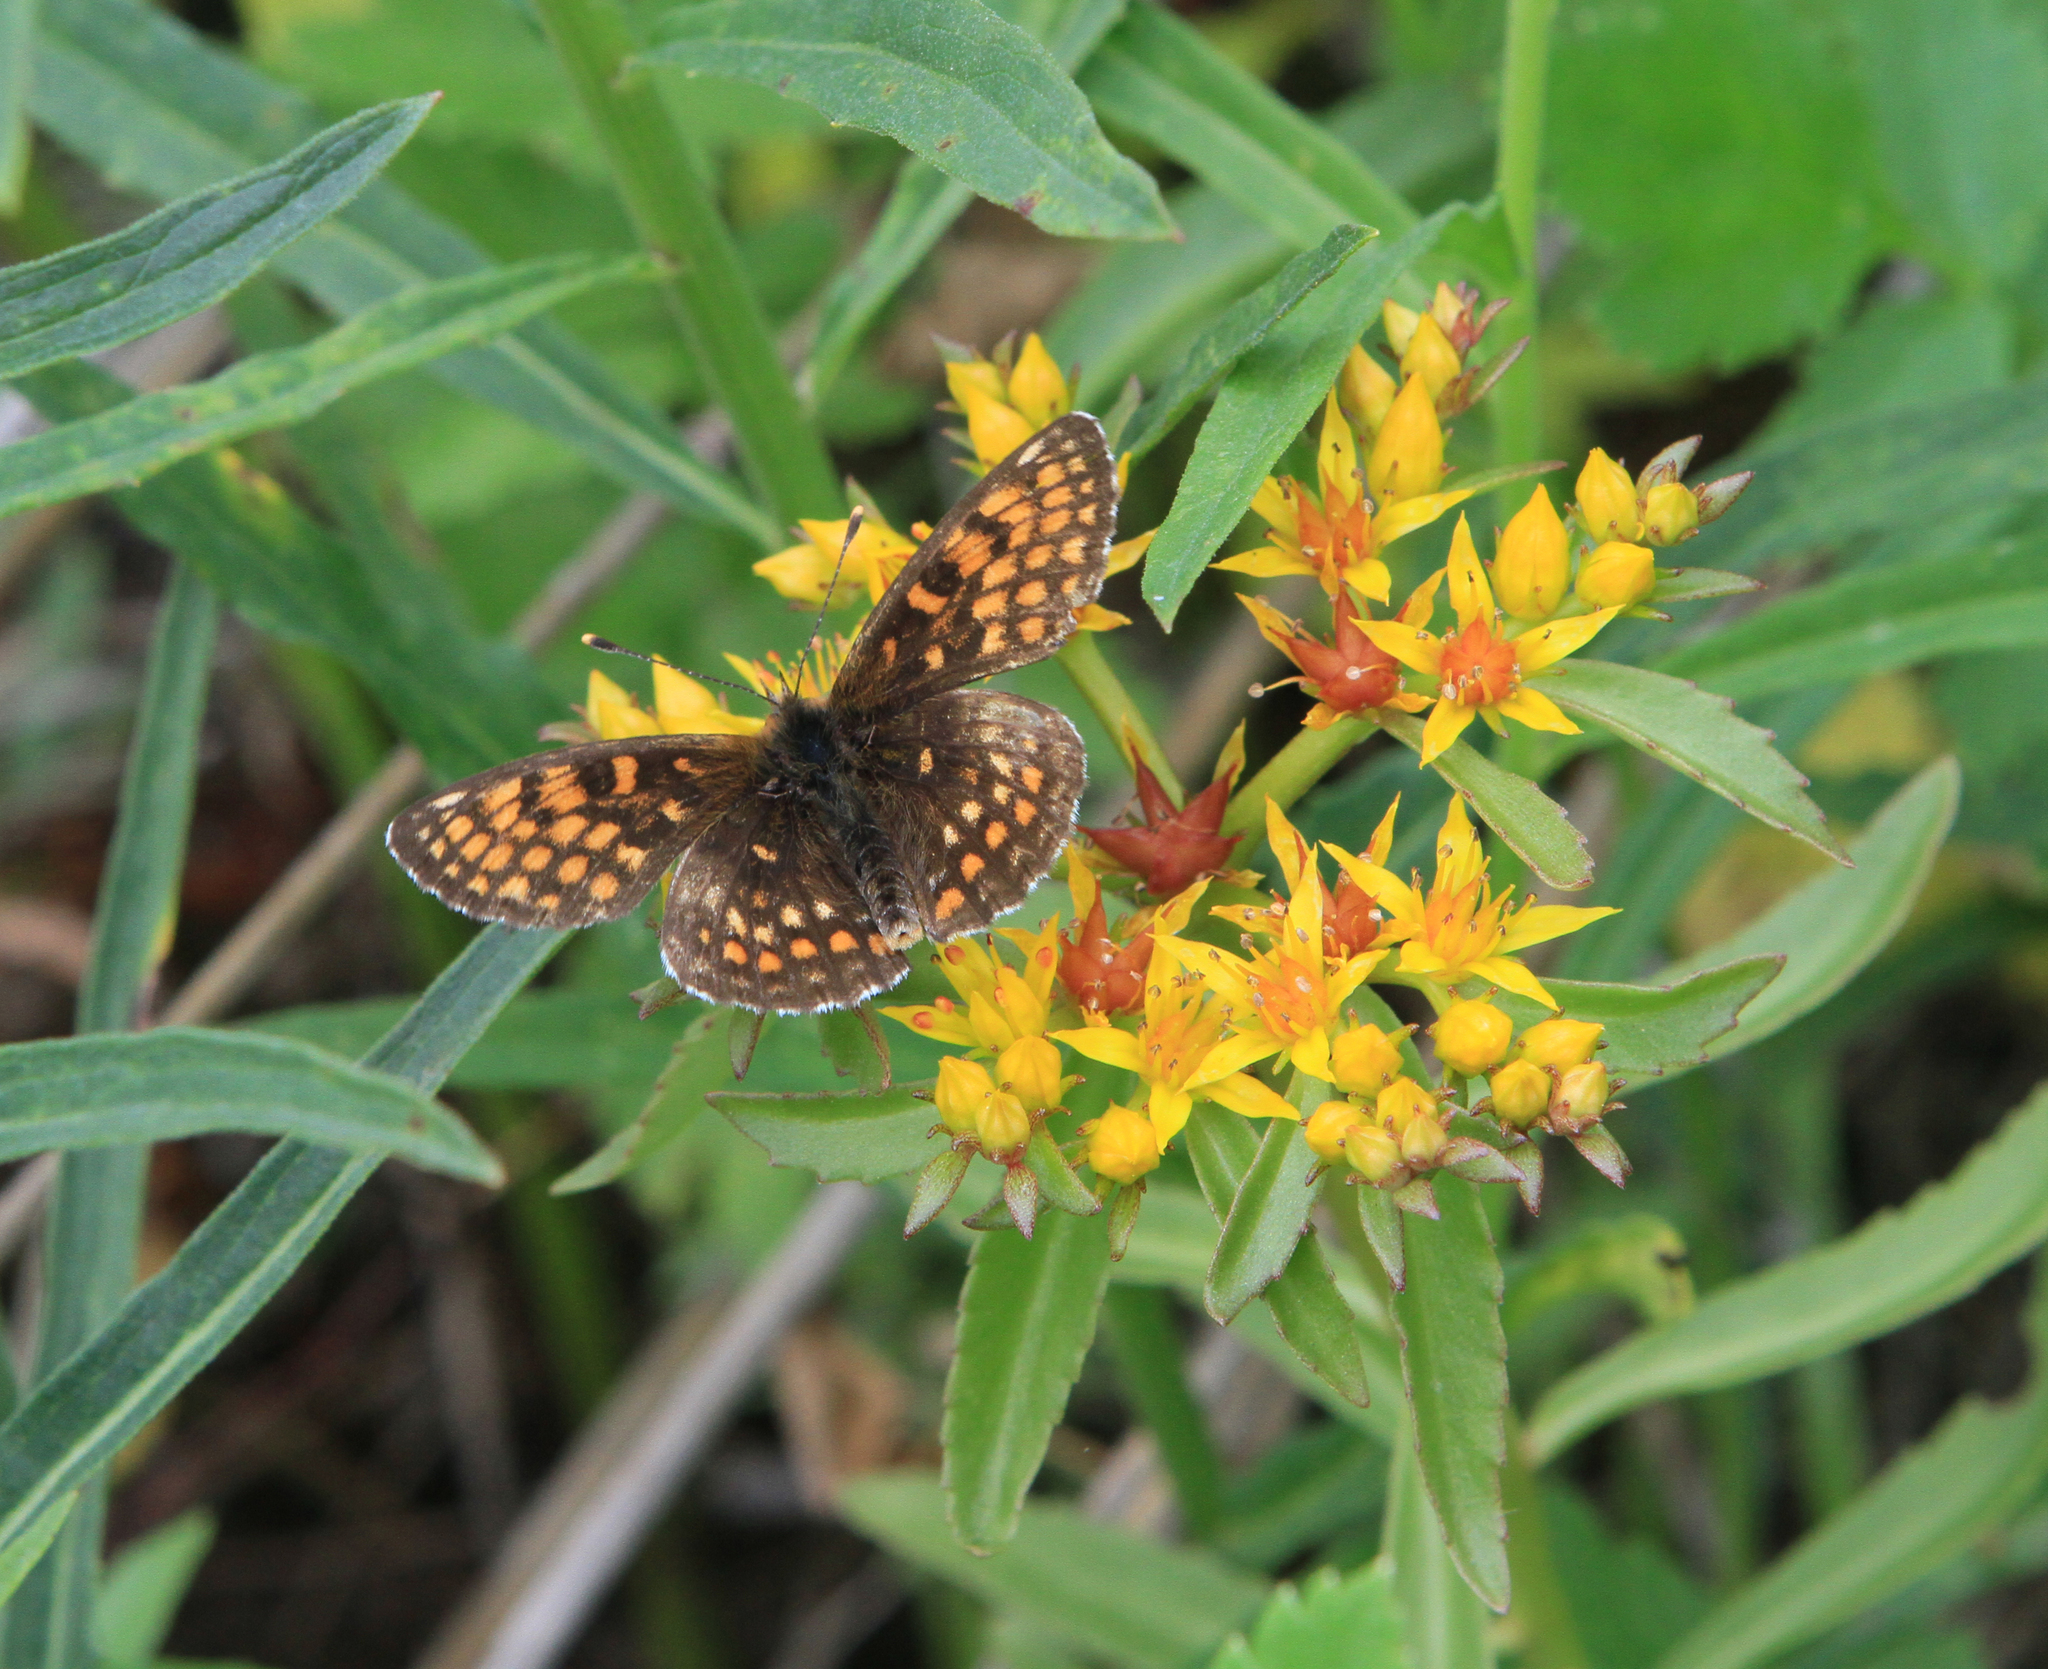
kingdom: Animalia
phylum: Arthropoda
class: Insecta
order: Lepidoptera
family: Nymphalidae
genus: Melitaea
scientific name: Melitaea
